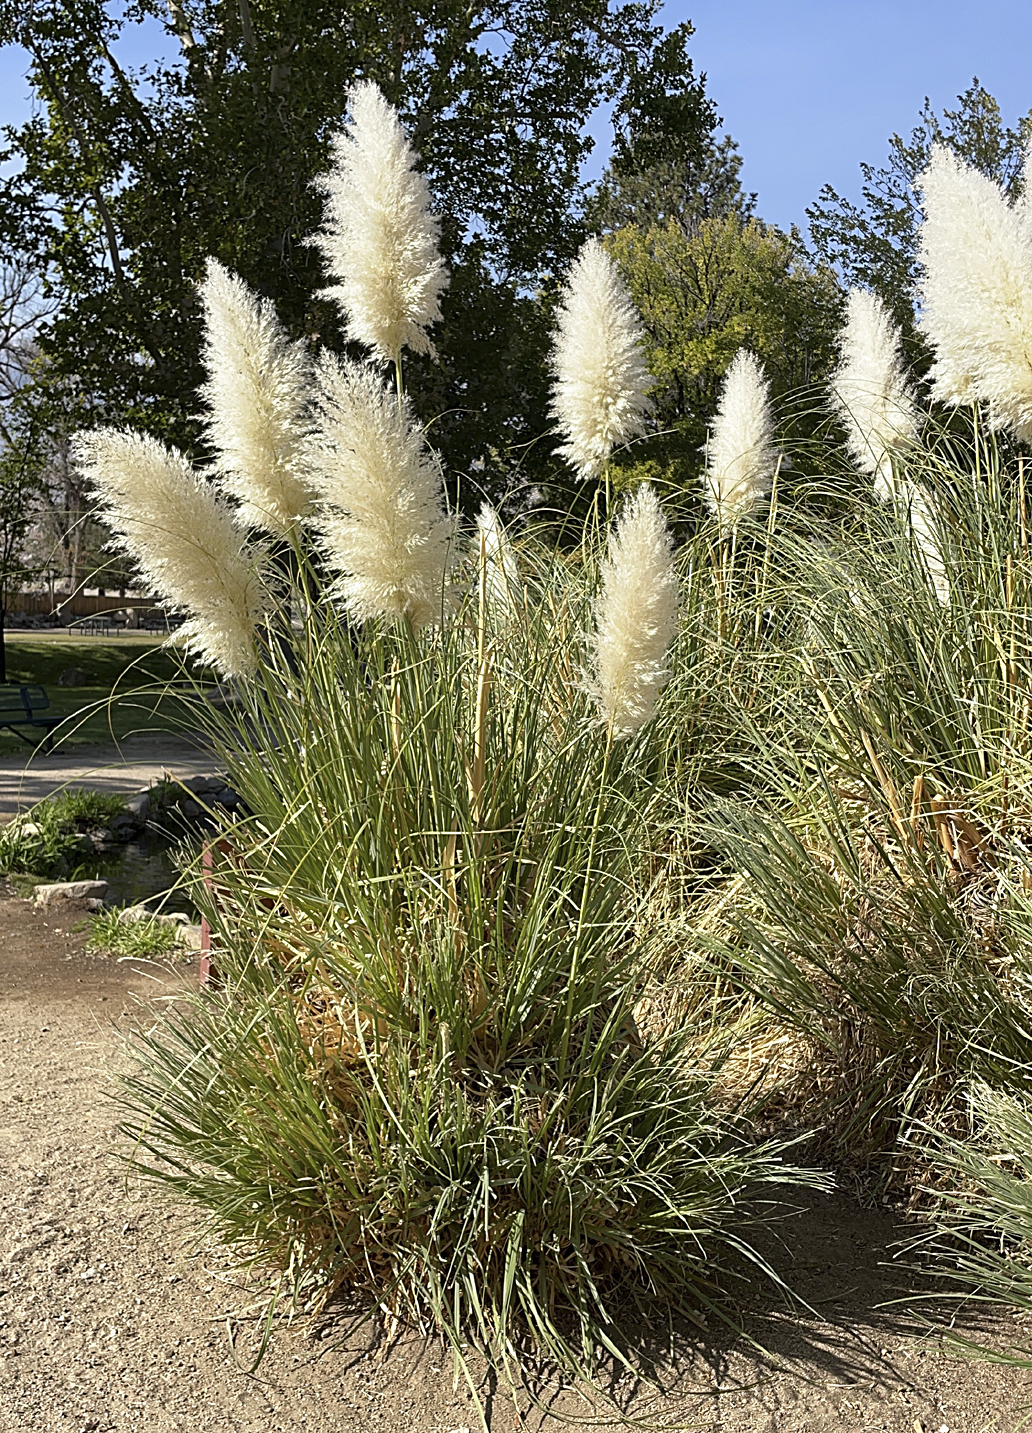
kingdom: Plantae
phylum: Tracheophyta
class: Liliopsida
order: Poales
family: Poaceae
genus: Cortaderia
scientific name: Cortaderia selloana
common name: Uruguayan pampas grass
